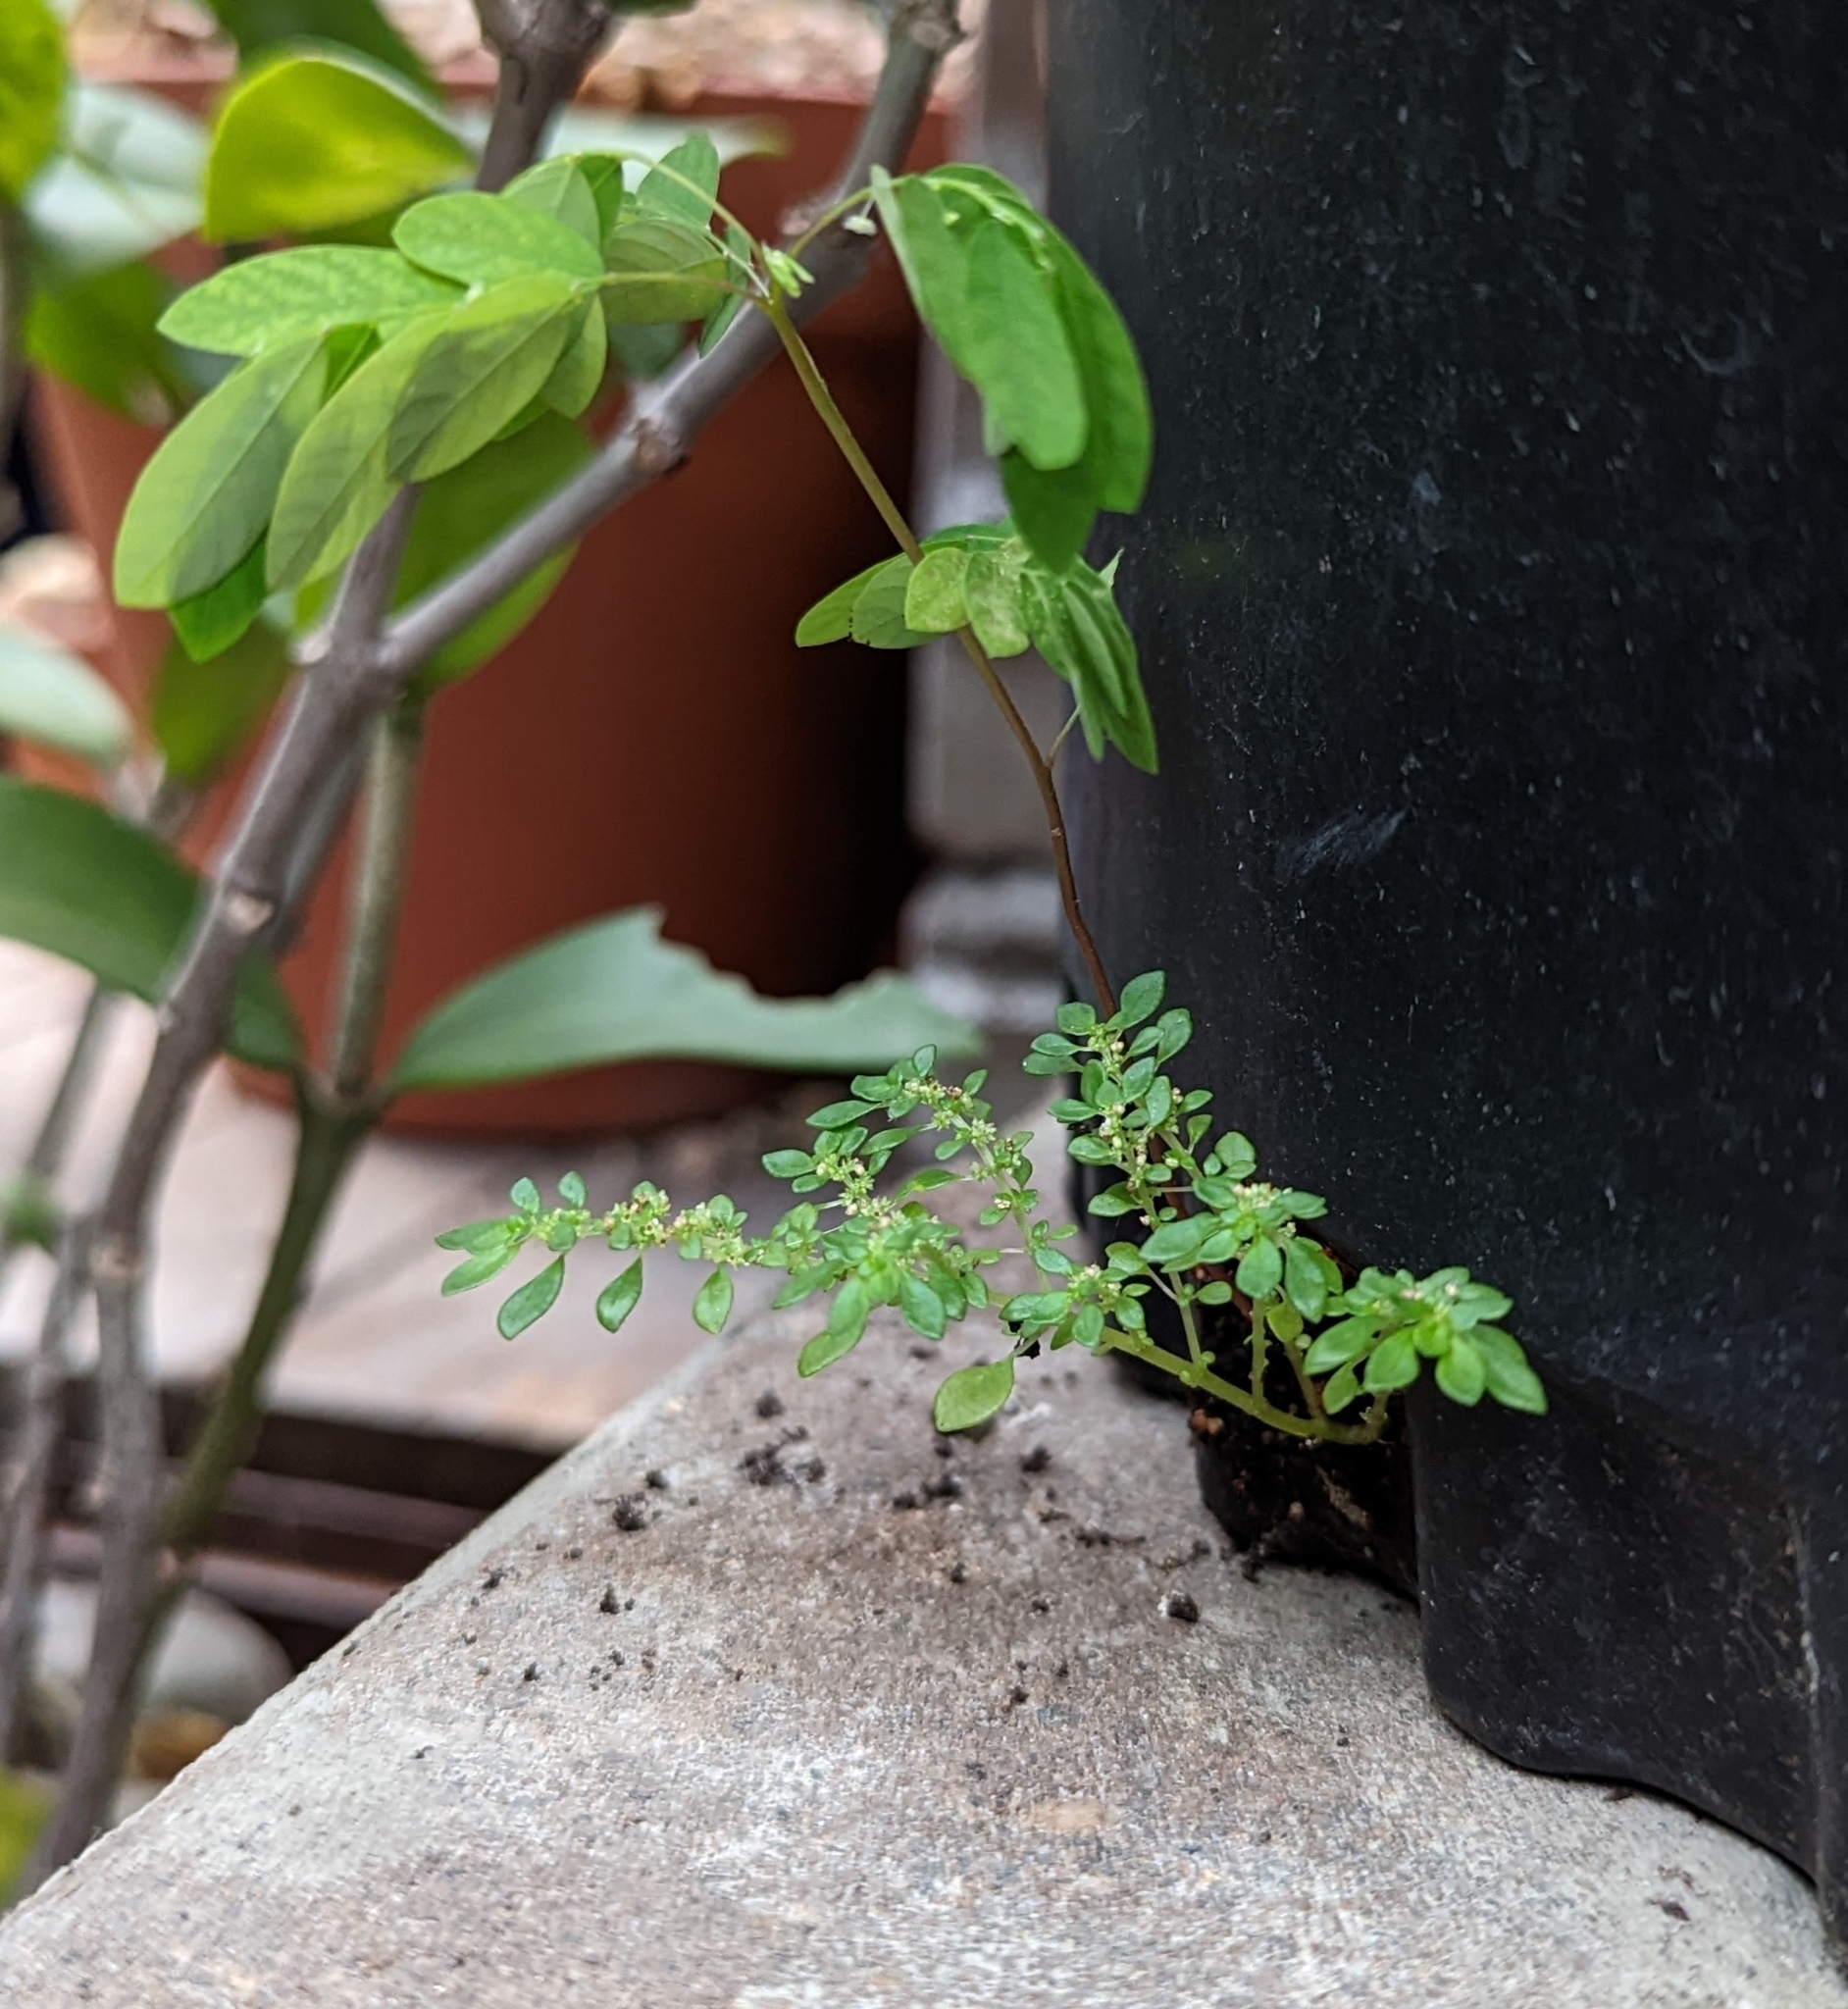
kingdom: Plantae
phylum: Tracheophyta
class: Magnoliopsida
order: Rosales
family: Urticaceae
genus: Pilea
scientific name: Pilea microphylla
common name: Artillery-plant
